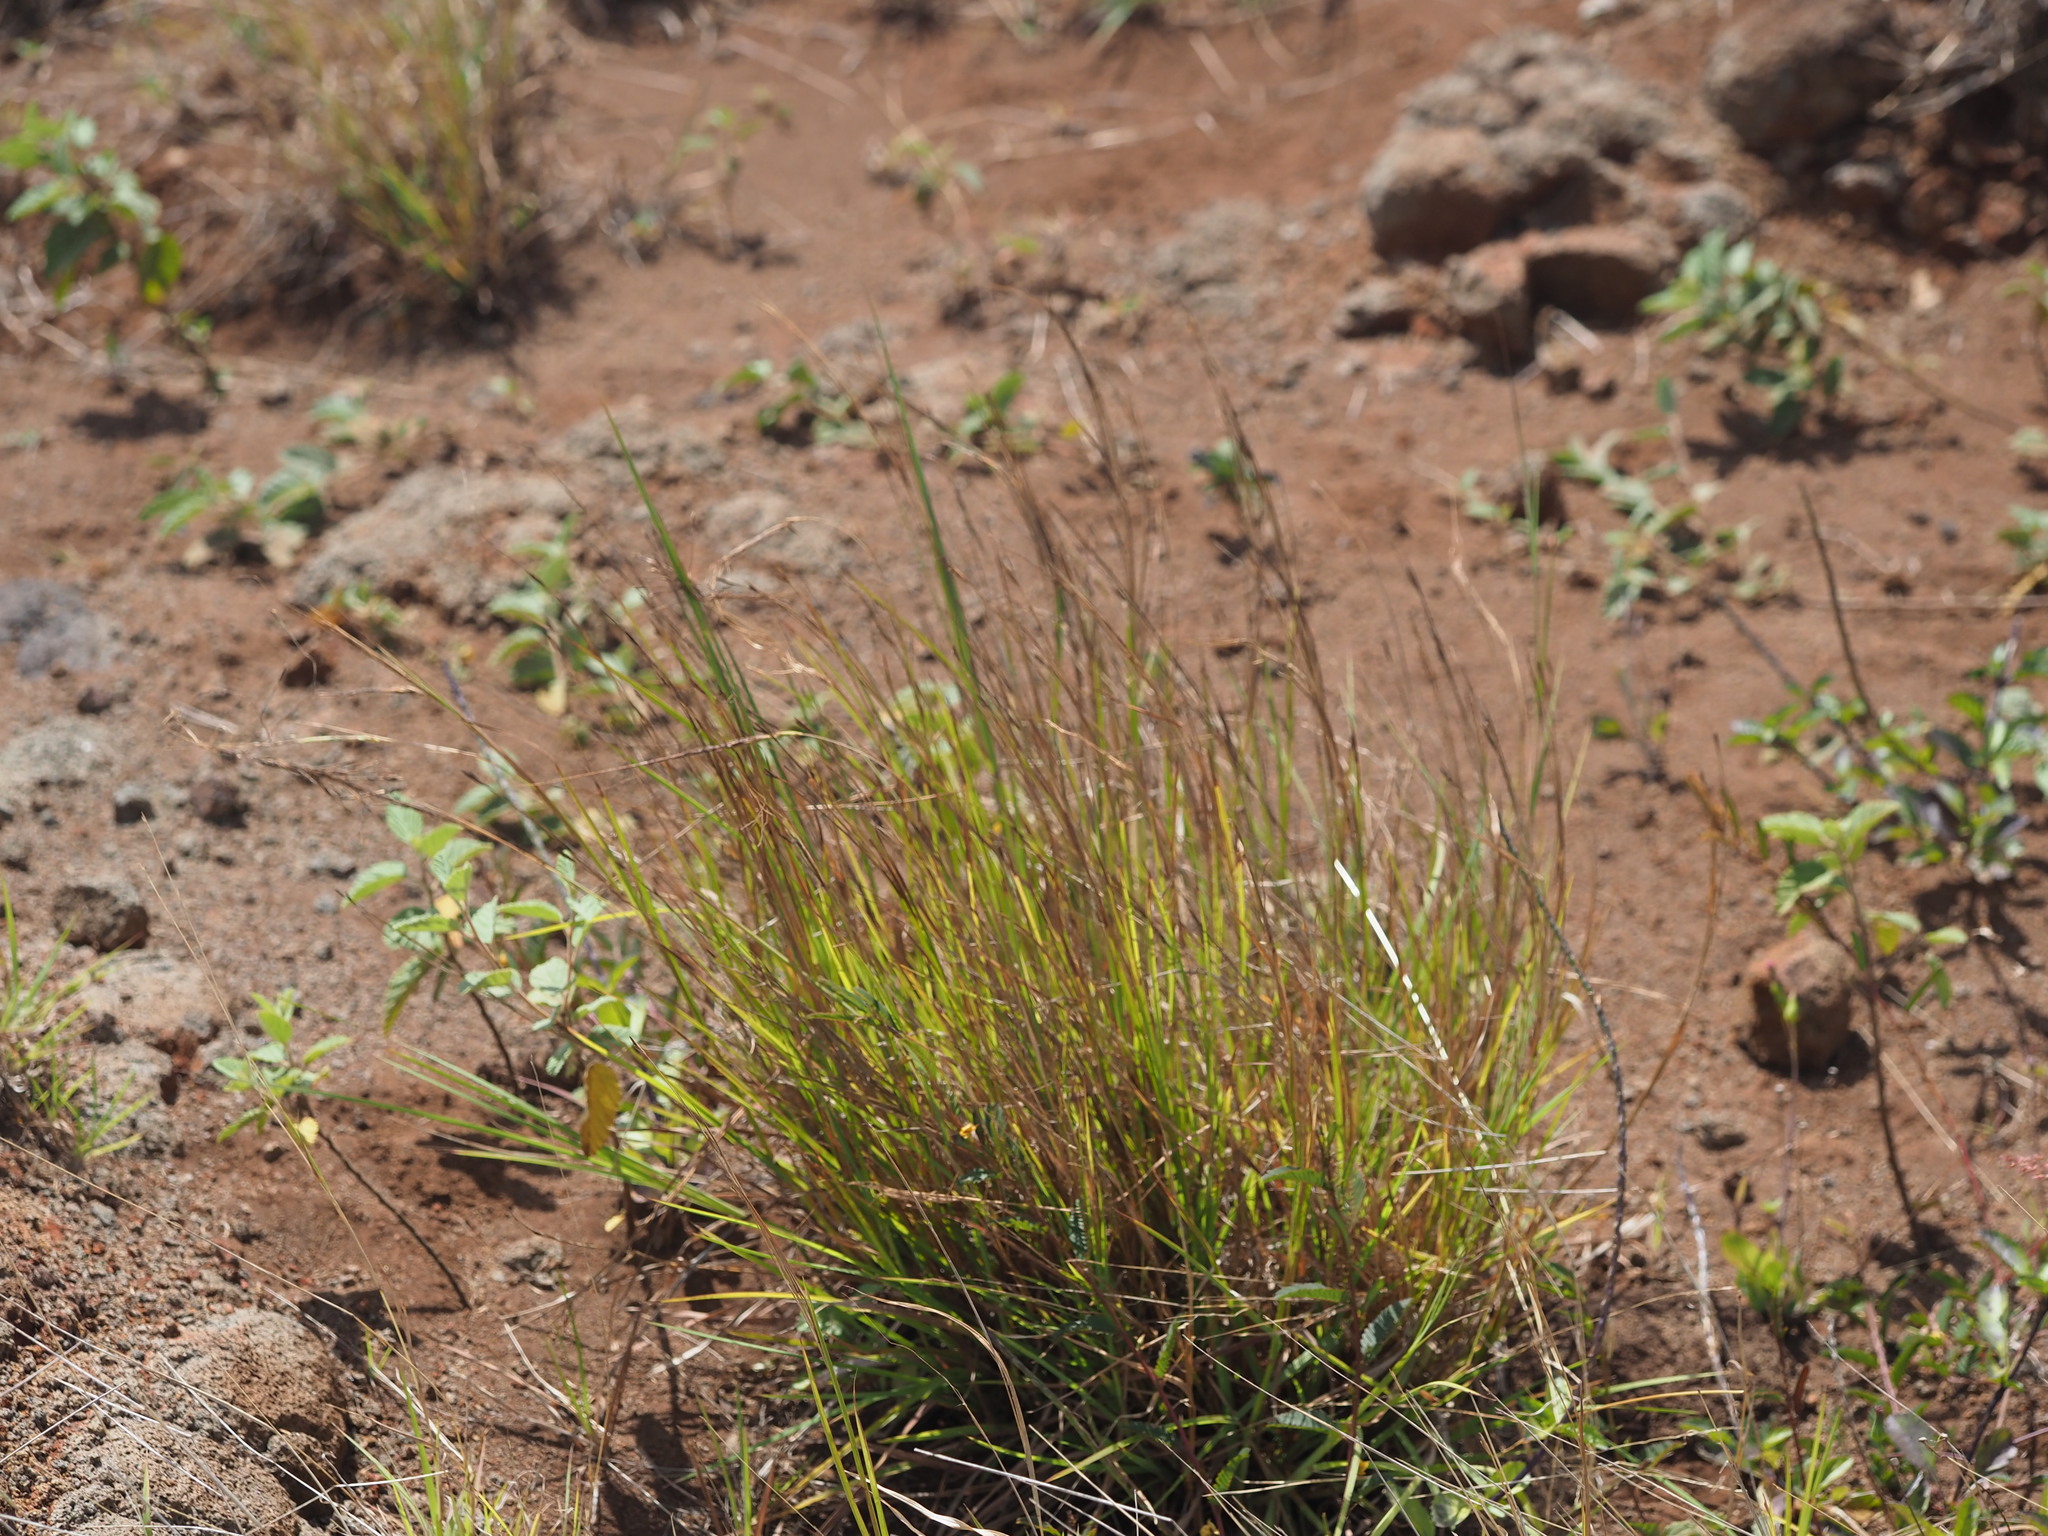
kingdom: Plantae
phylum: Tracheophyta
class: Liliopsida
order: Poales
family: Poaceae
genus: Heteropogon
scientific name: Heteropogon contortus
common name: Tanglehead
